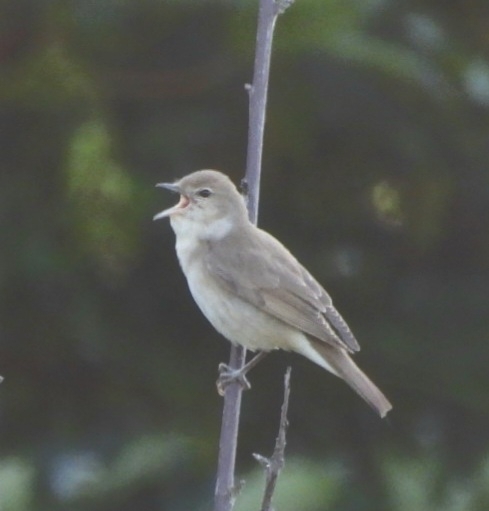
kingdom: Animalia
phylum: Chordata
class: Aves
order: Passeriformes
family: Sylviidae
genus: Sylvia
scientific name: Sylvia borin
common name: Garden warbler
